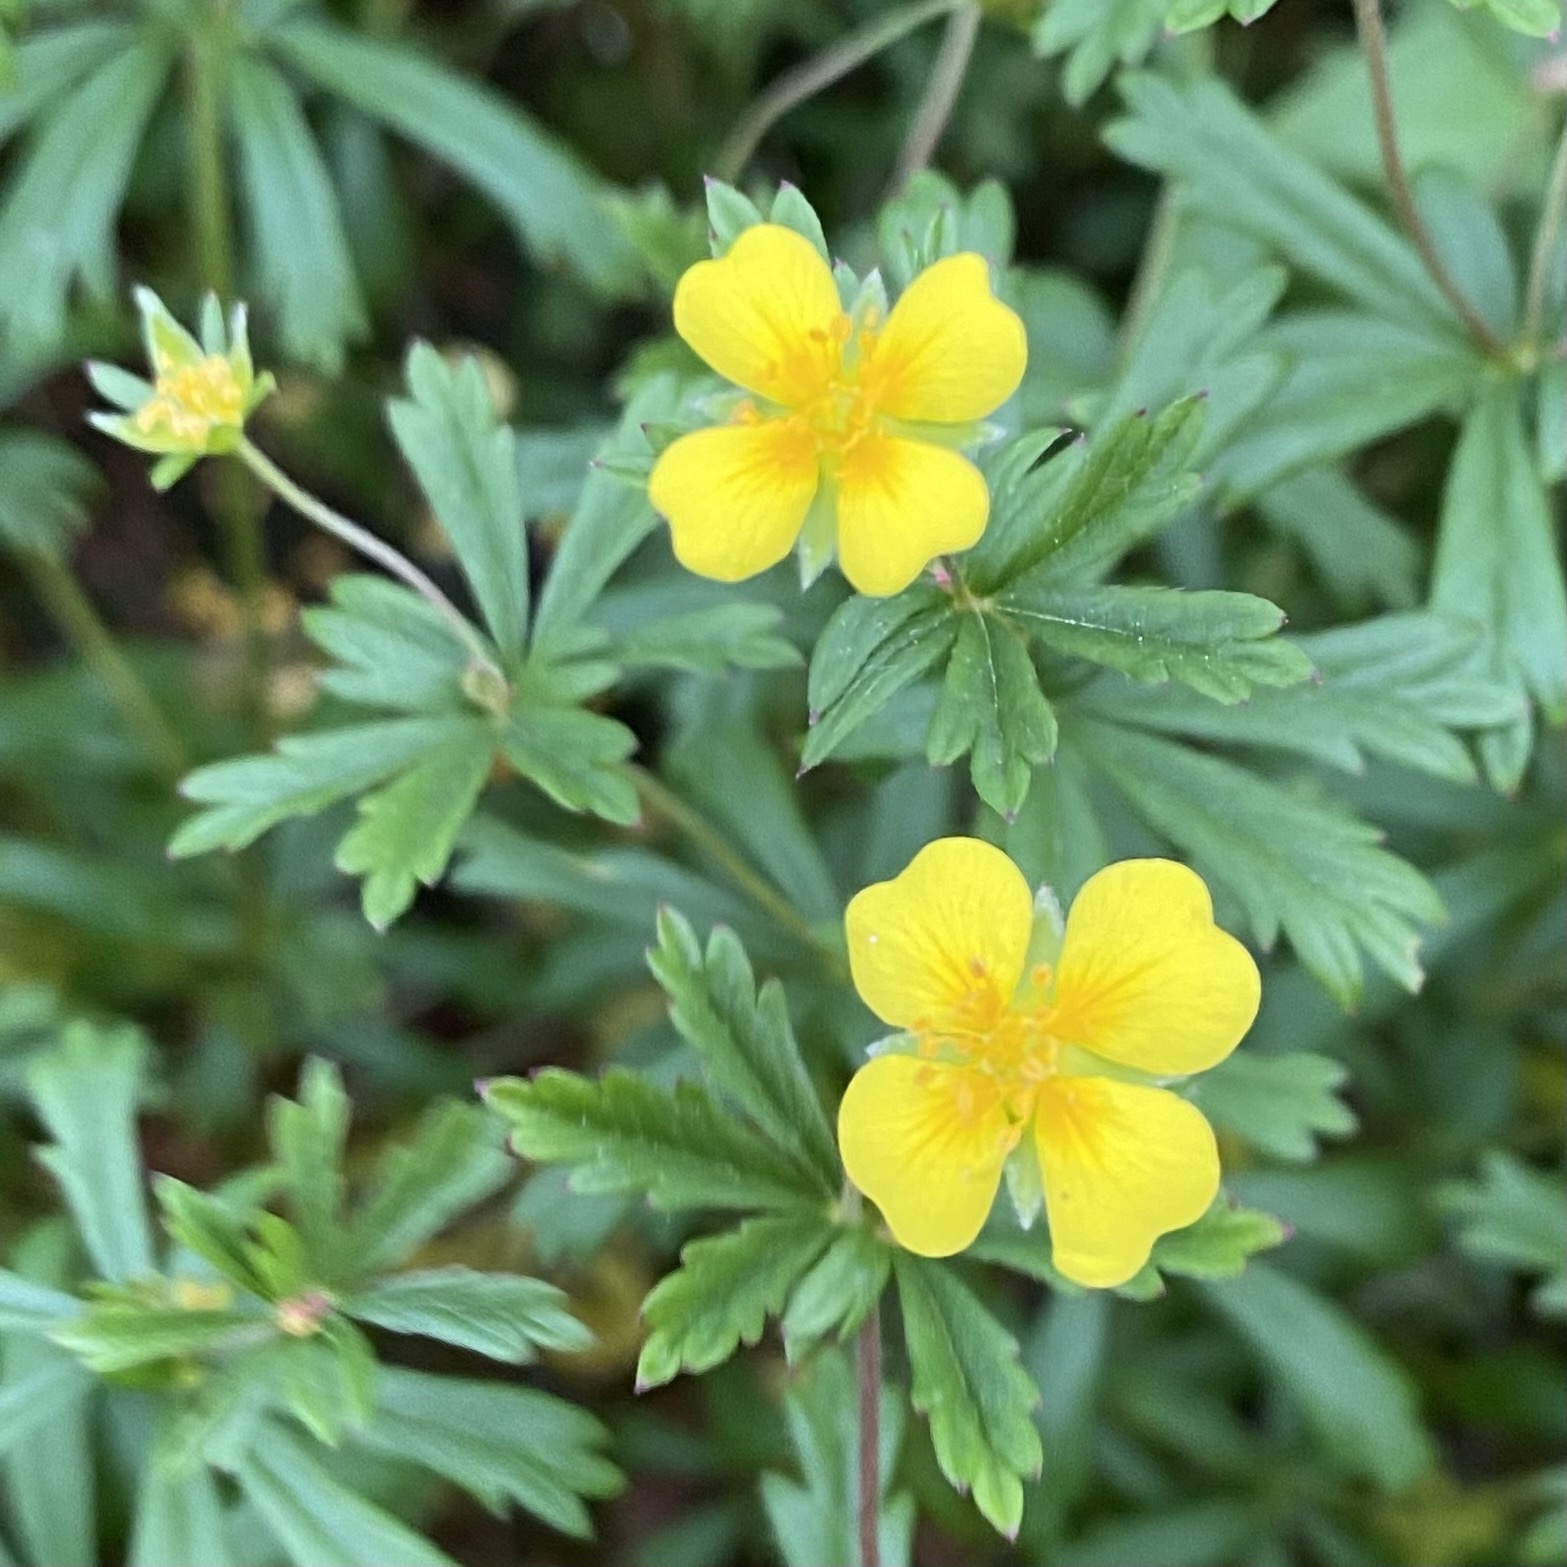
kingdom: Plantae
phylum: Tracheophyta
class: Magnoliopsida
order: Rosales
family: Rosaceae
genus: Potentilla
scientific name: Potentilla erecta
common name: Tormentil
